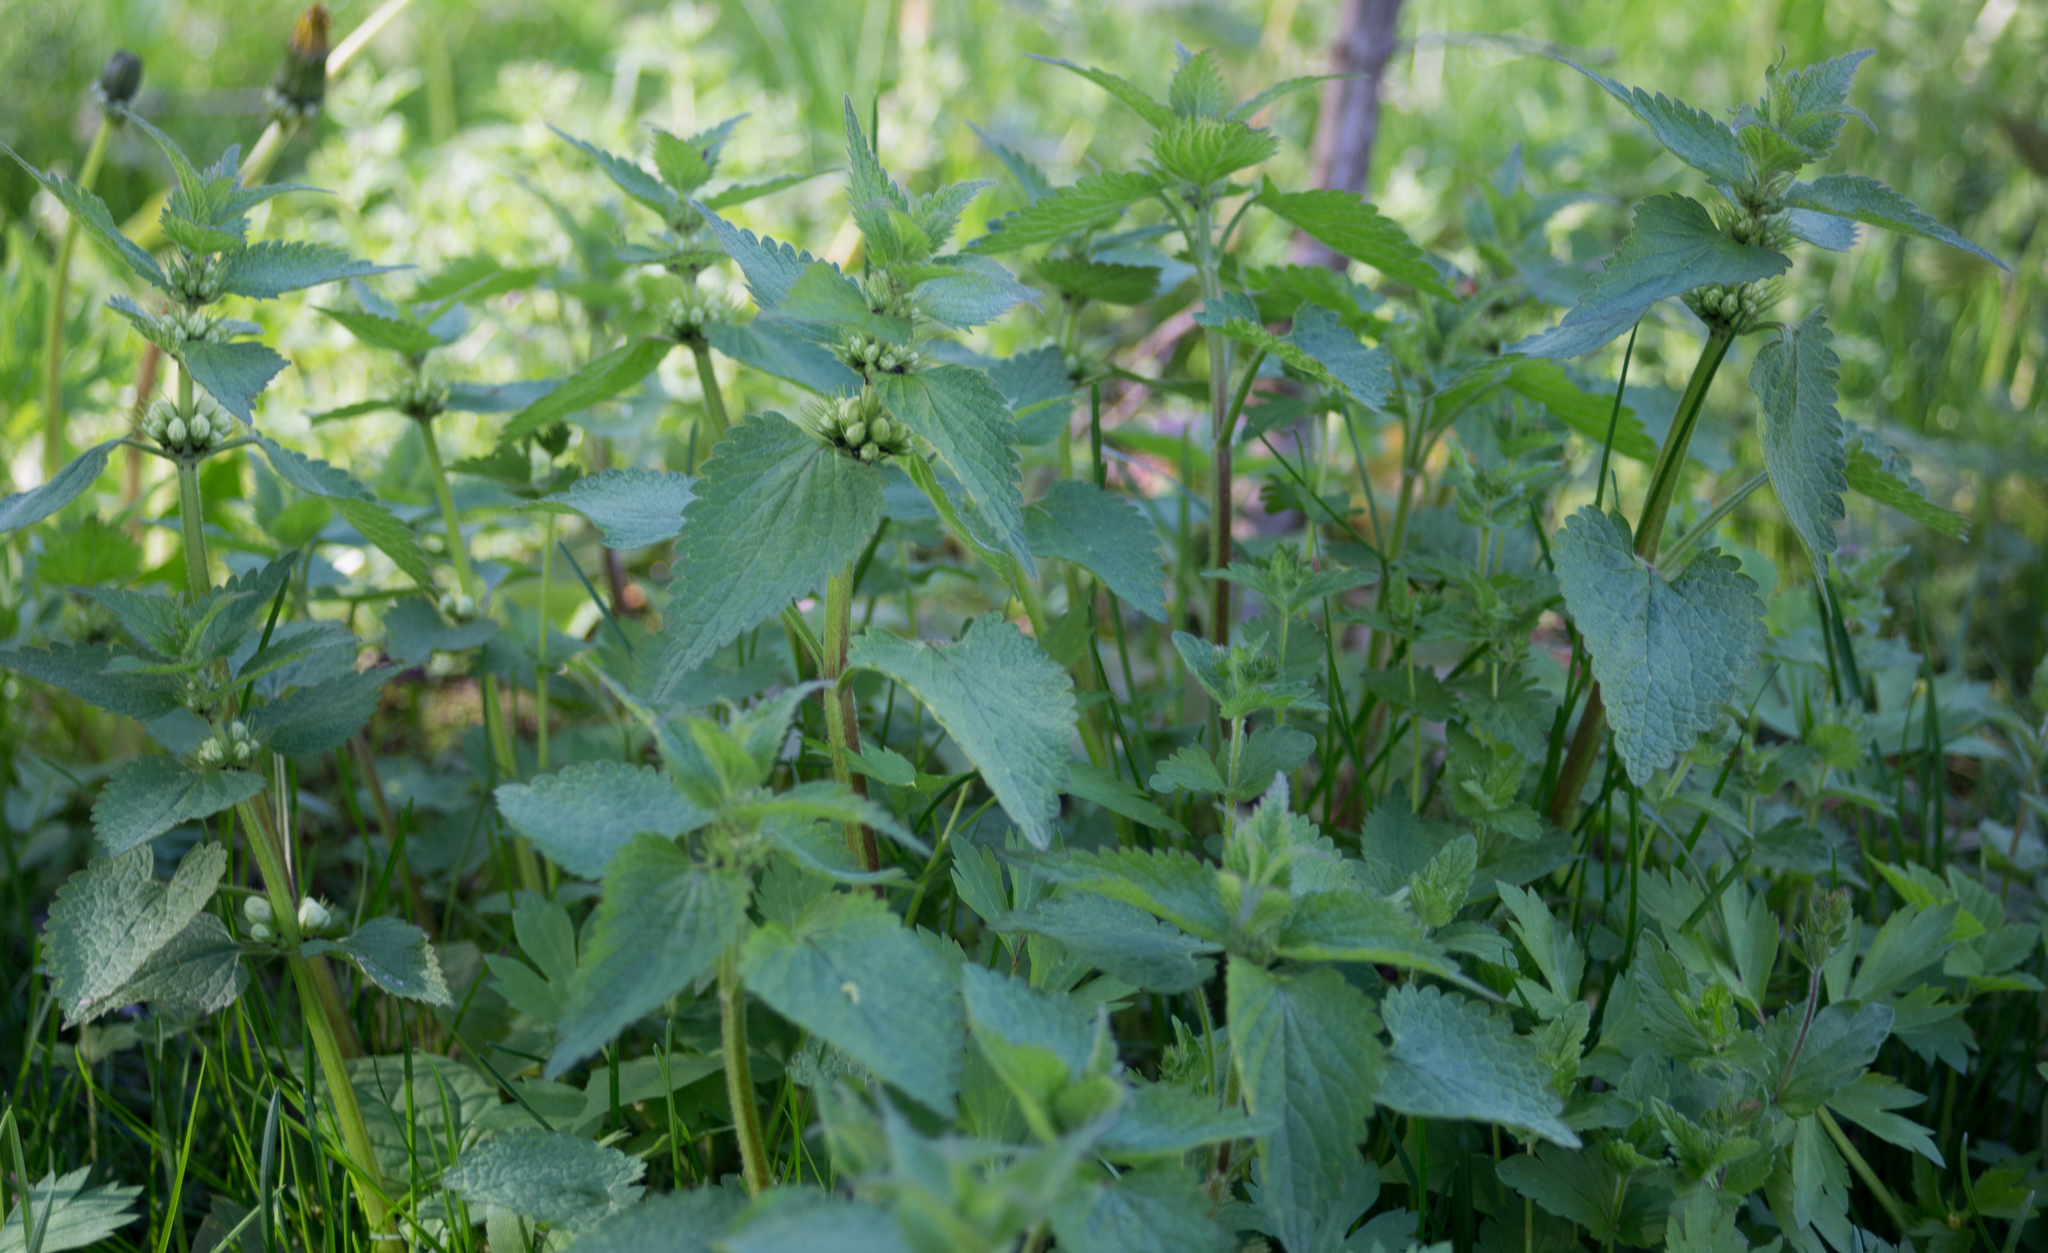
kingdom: Plantae
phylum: Tracheophyta
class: Magnoliopsida
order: Lamiales
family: Lamiaceae
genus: Lamium
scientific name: Lamium album
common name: White dead-nettle
